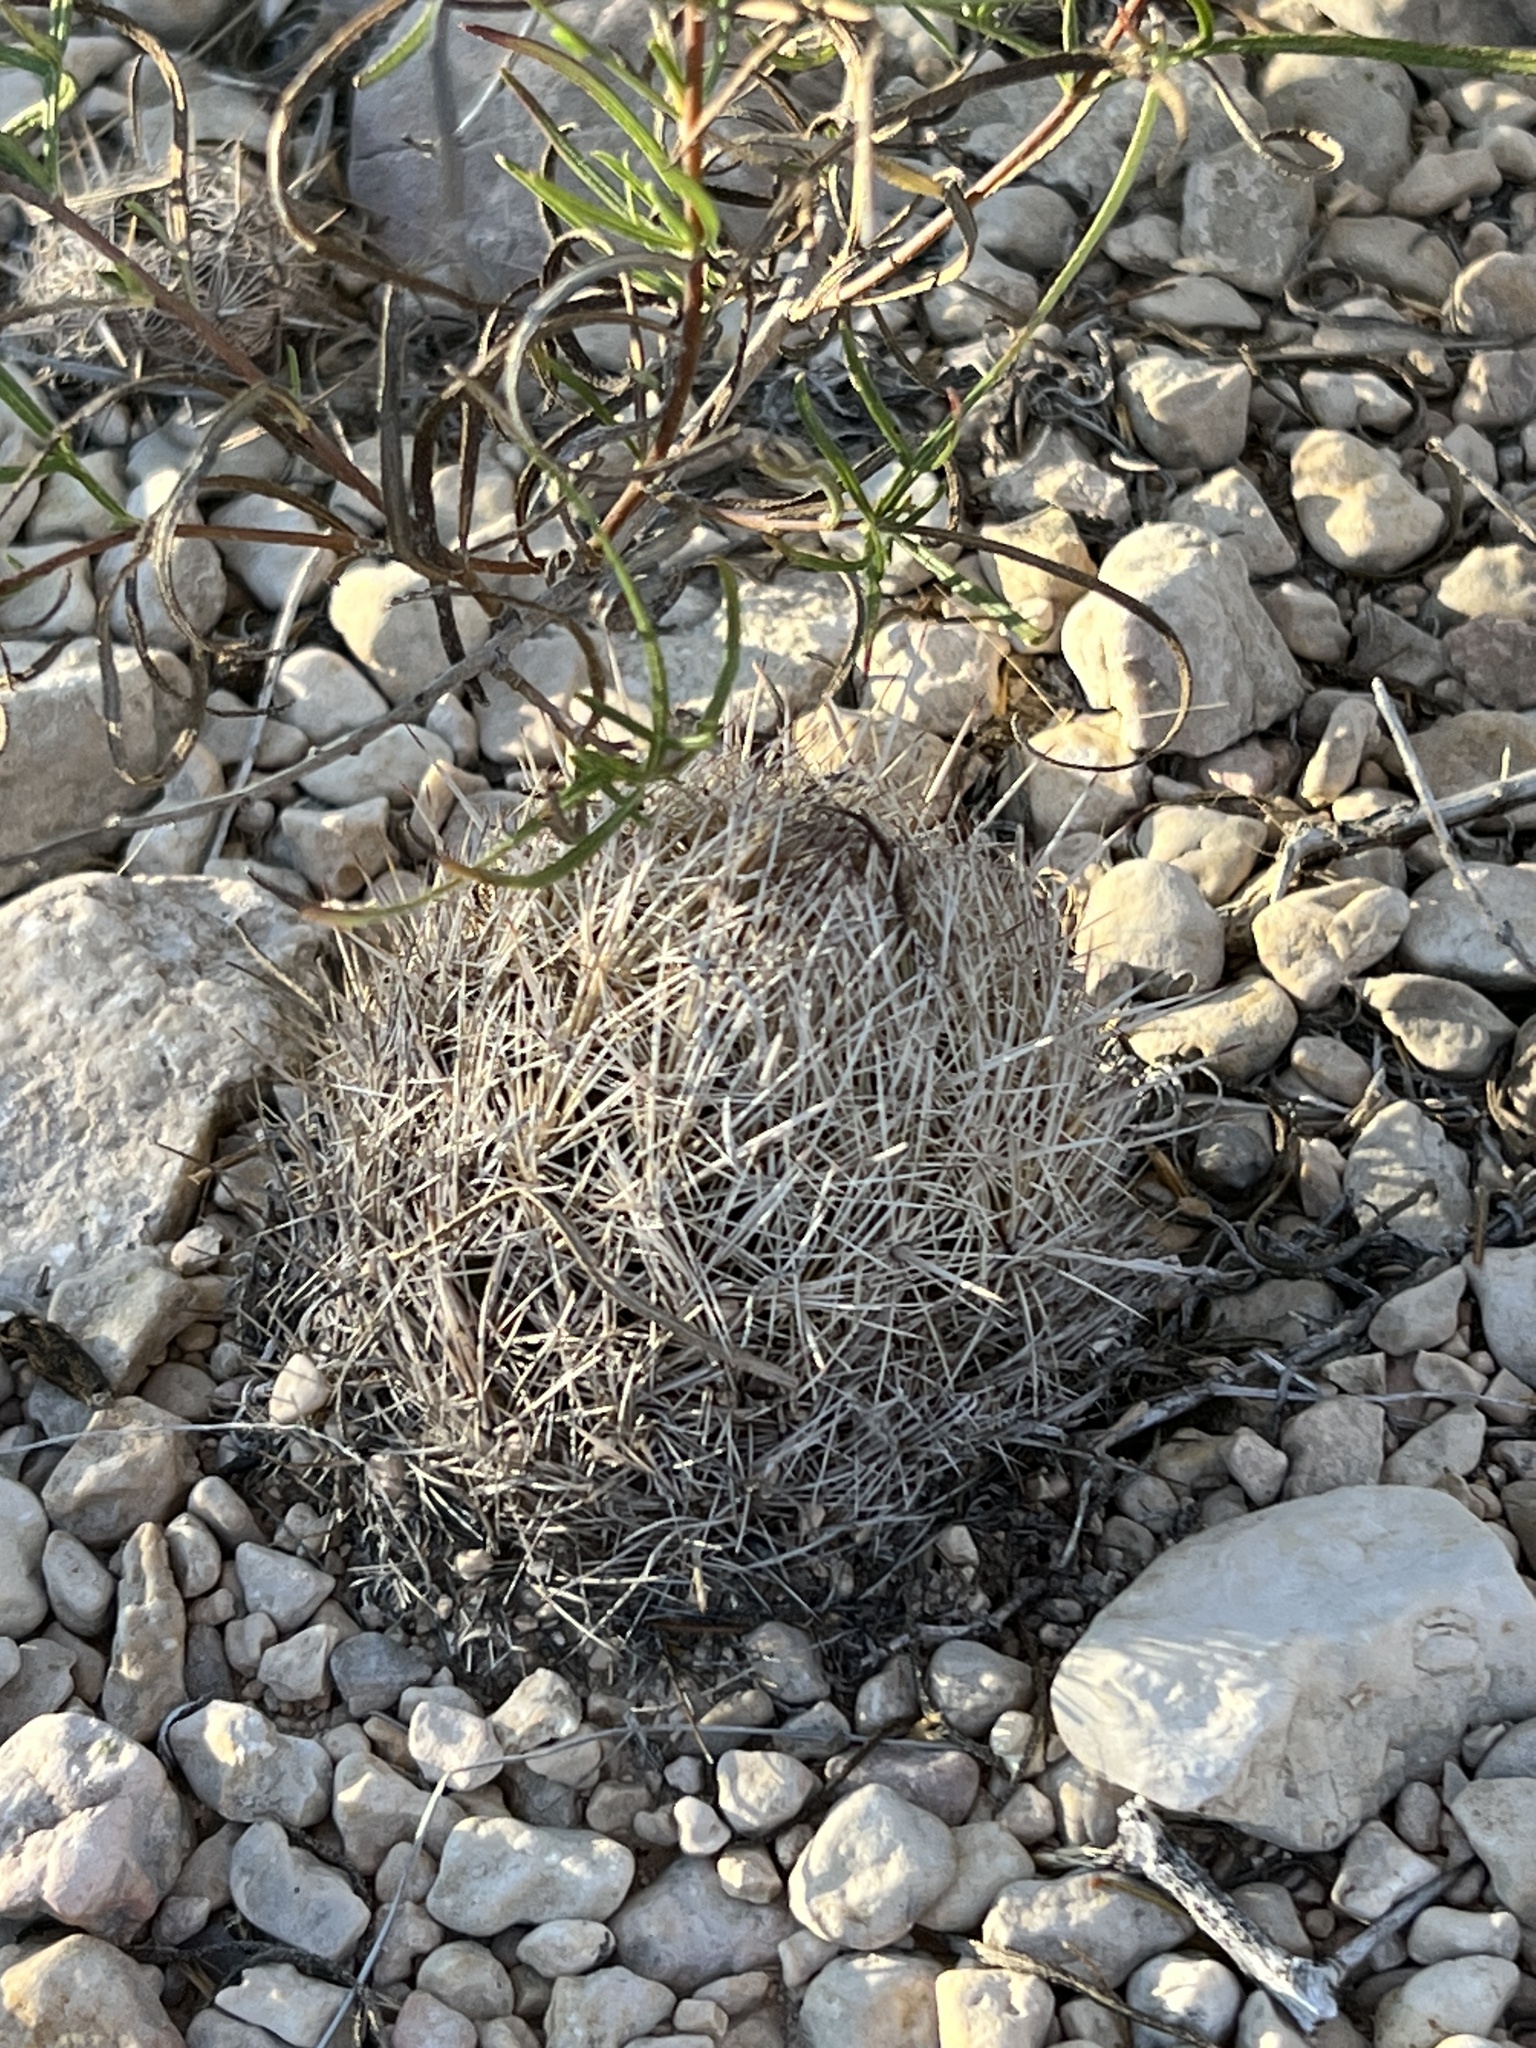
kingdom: Plantae
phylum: Tracheophyta
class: Magnoliopsida
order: Caryophyllales
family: Cactaceae
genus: Coryphantha
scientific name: Coryphantha echinus
